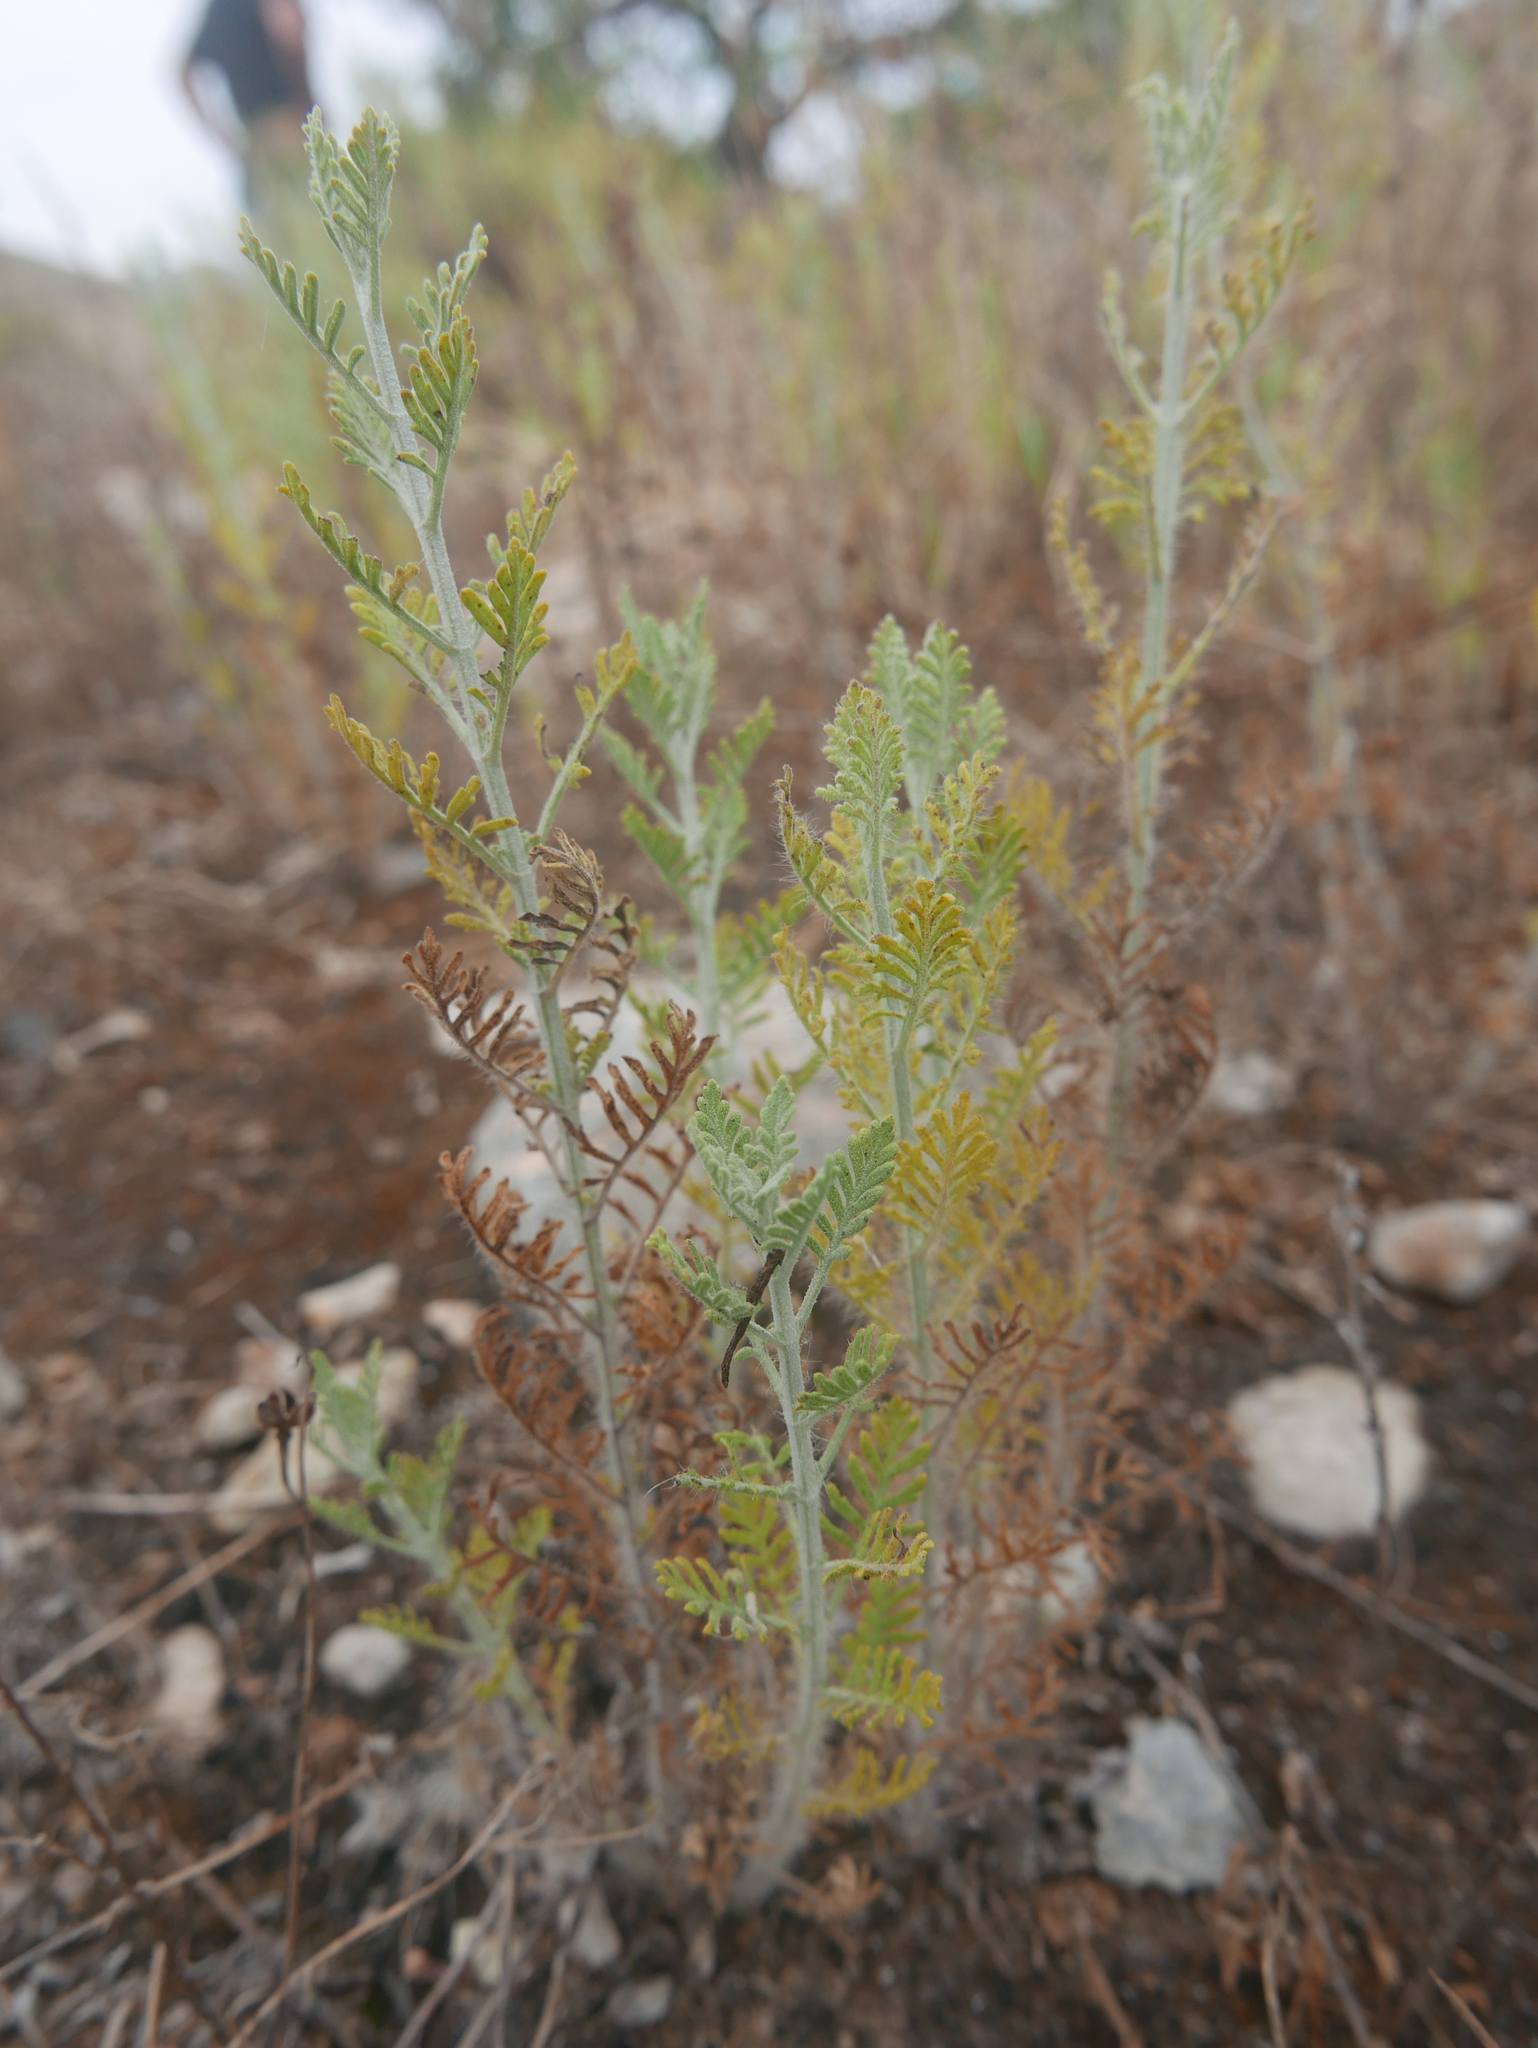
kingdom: Plantae
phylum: Tracheophyta
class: Magnoliopsida
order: Lamiales
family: Lamiaceae
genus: Lavandula
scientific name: Lavandula multifida
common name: Fern-leaf lavender
